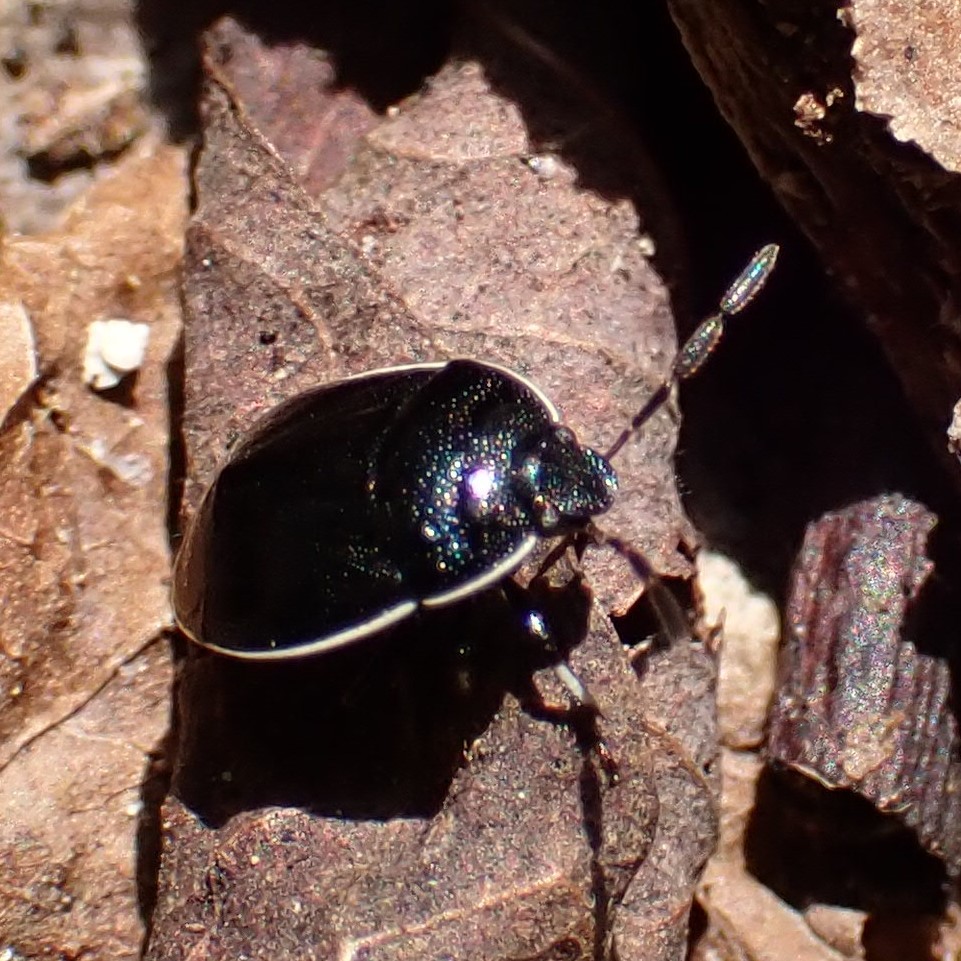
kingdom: Animalia
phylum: Arthropoda
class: Insecta
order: Hemiptera
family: Cydnidae
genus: Sehirus
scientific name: Sehirus cinctus
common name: White-margined burrower bug
